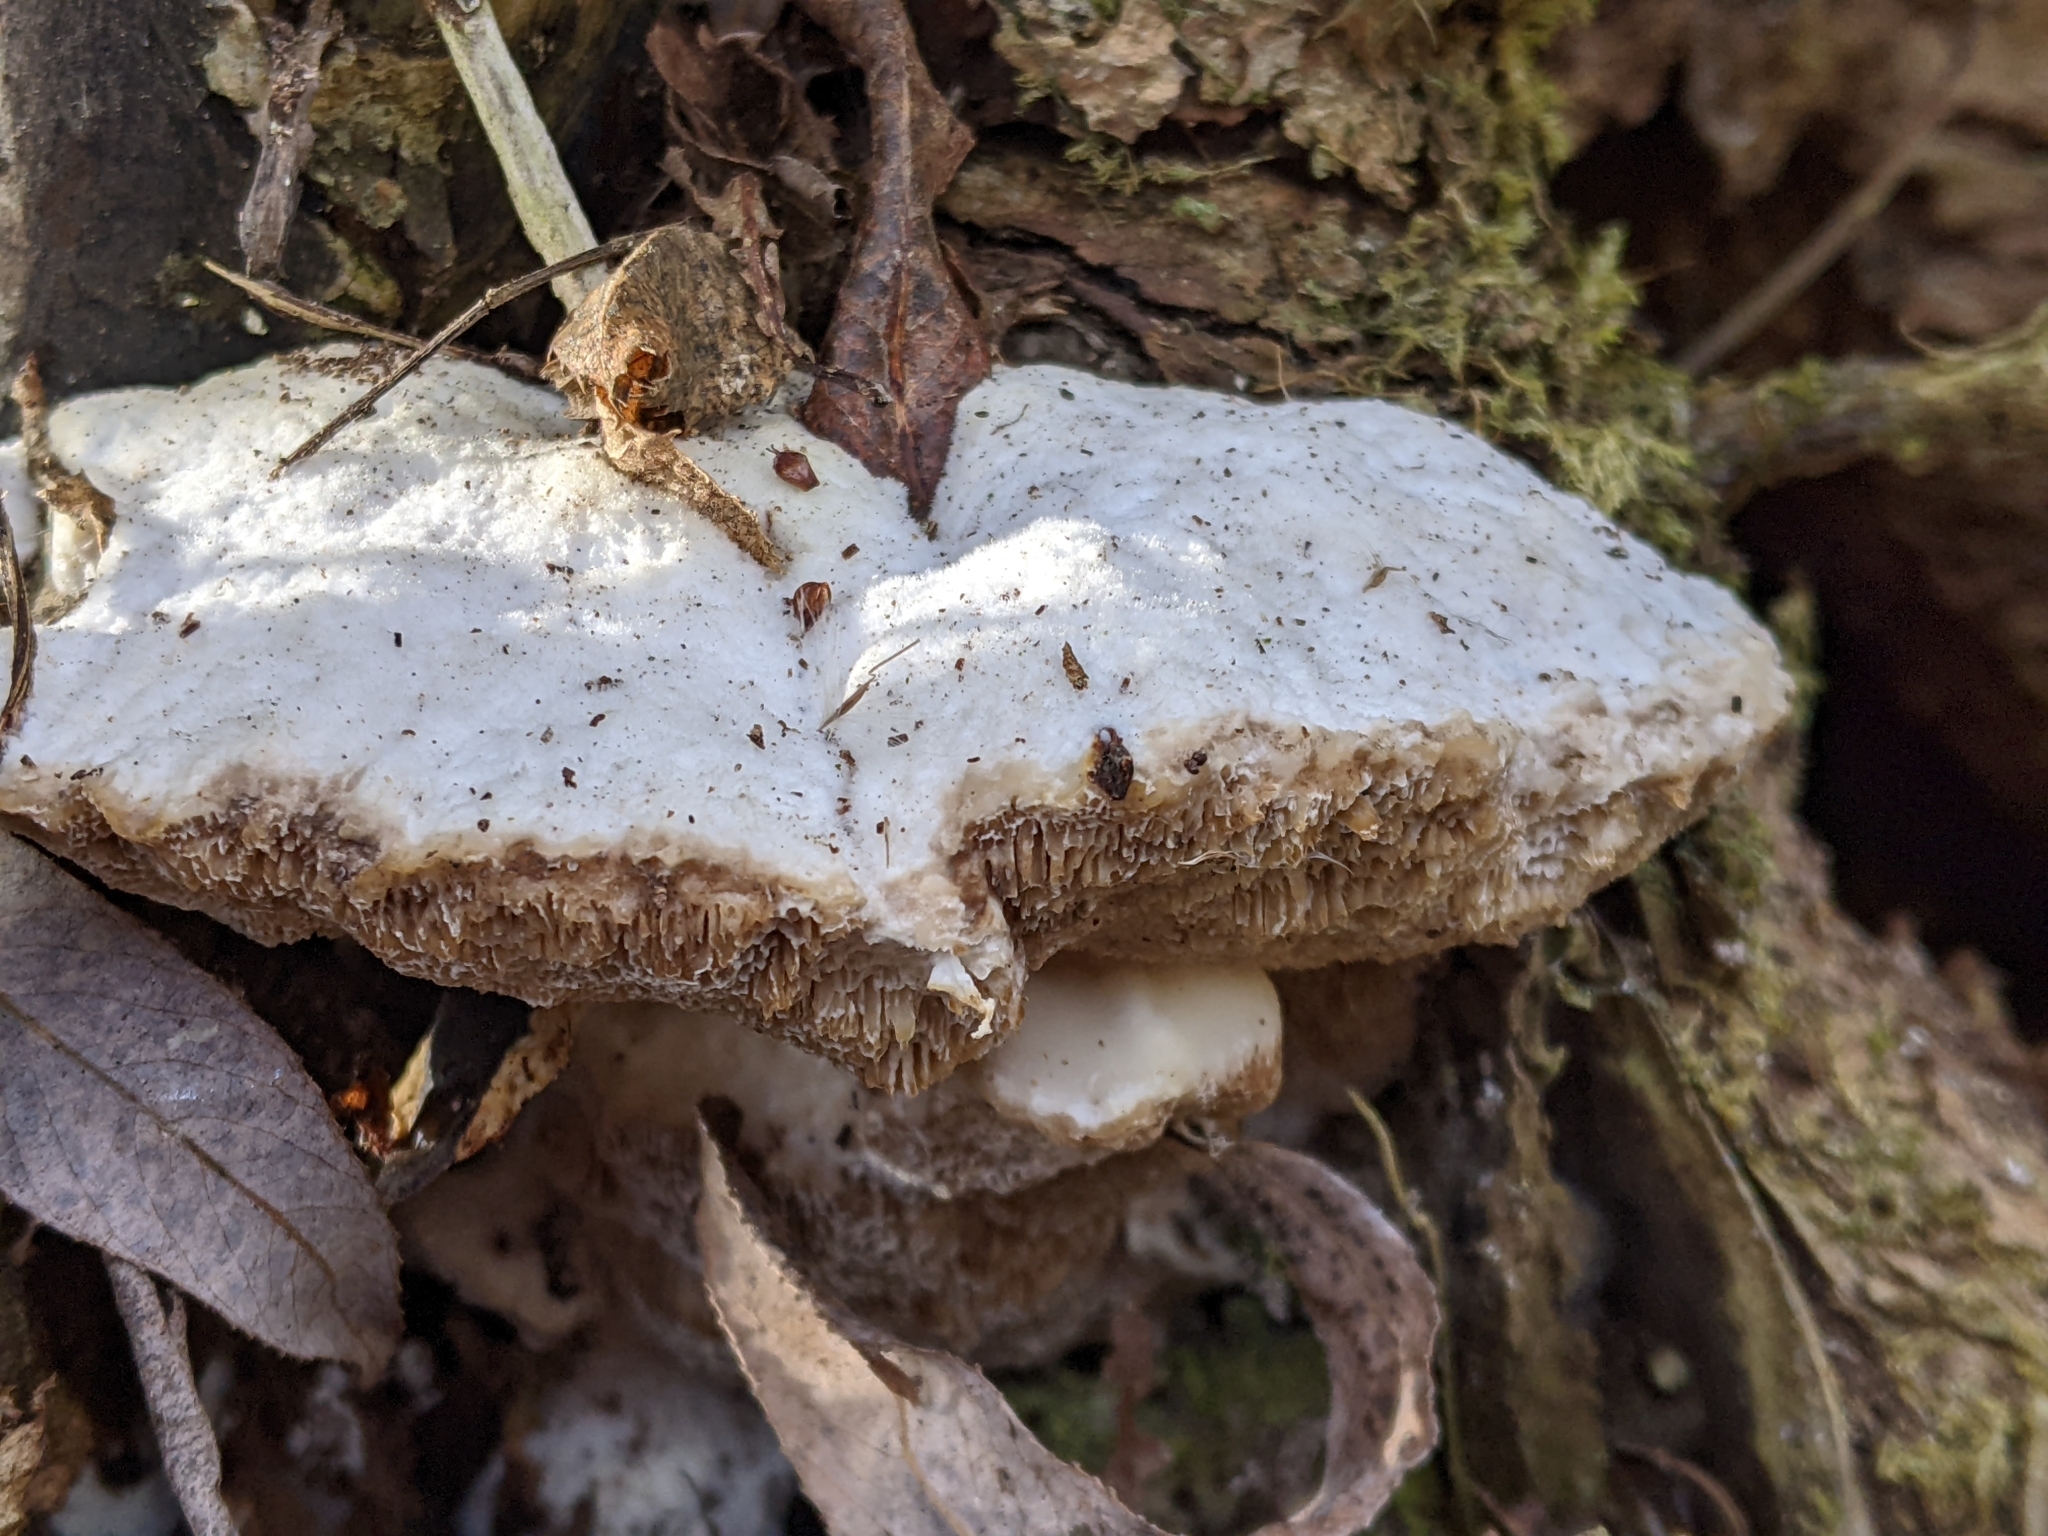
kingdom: Fungi
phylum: Basidiomycota
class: Agaricomycetes
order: Polyporales
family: Polyporaceae
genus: Trametes
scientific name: Trametes suaveolens
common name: Fragrant bracket
